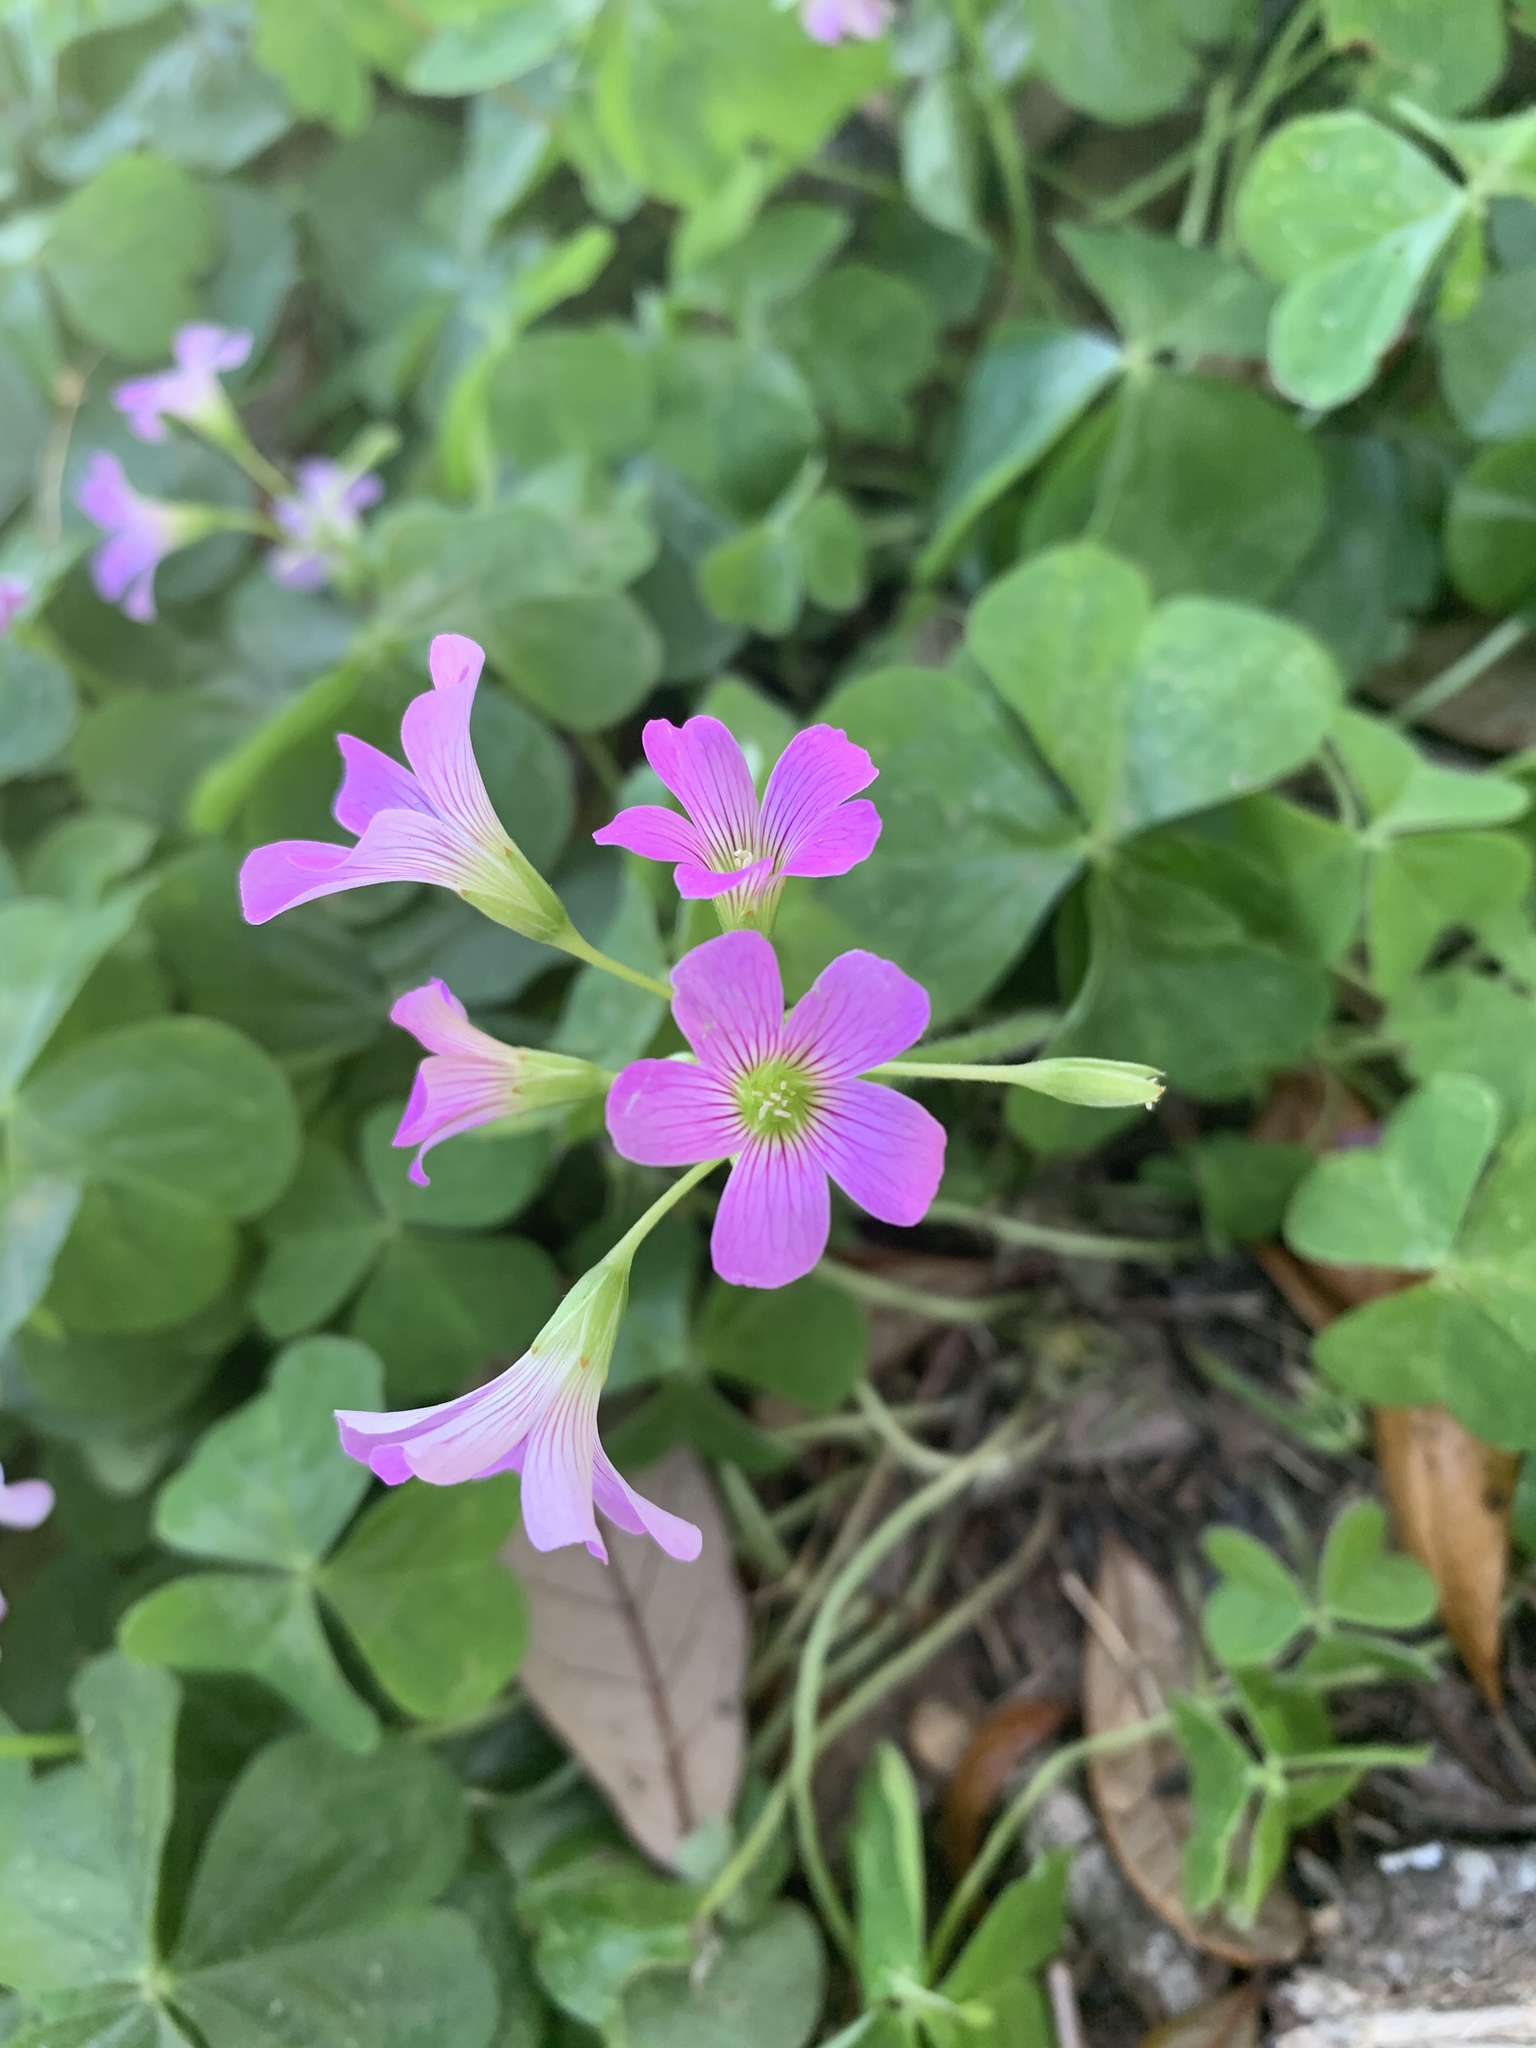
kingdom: Plantae
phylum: Tracheophyta
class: Magnoliopsida
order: Oxalidales
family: Oxalidaceae
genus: Oxalis
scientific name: Oxalis debilis
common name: Large-flowered pink-sorrel
